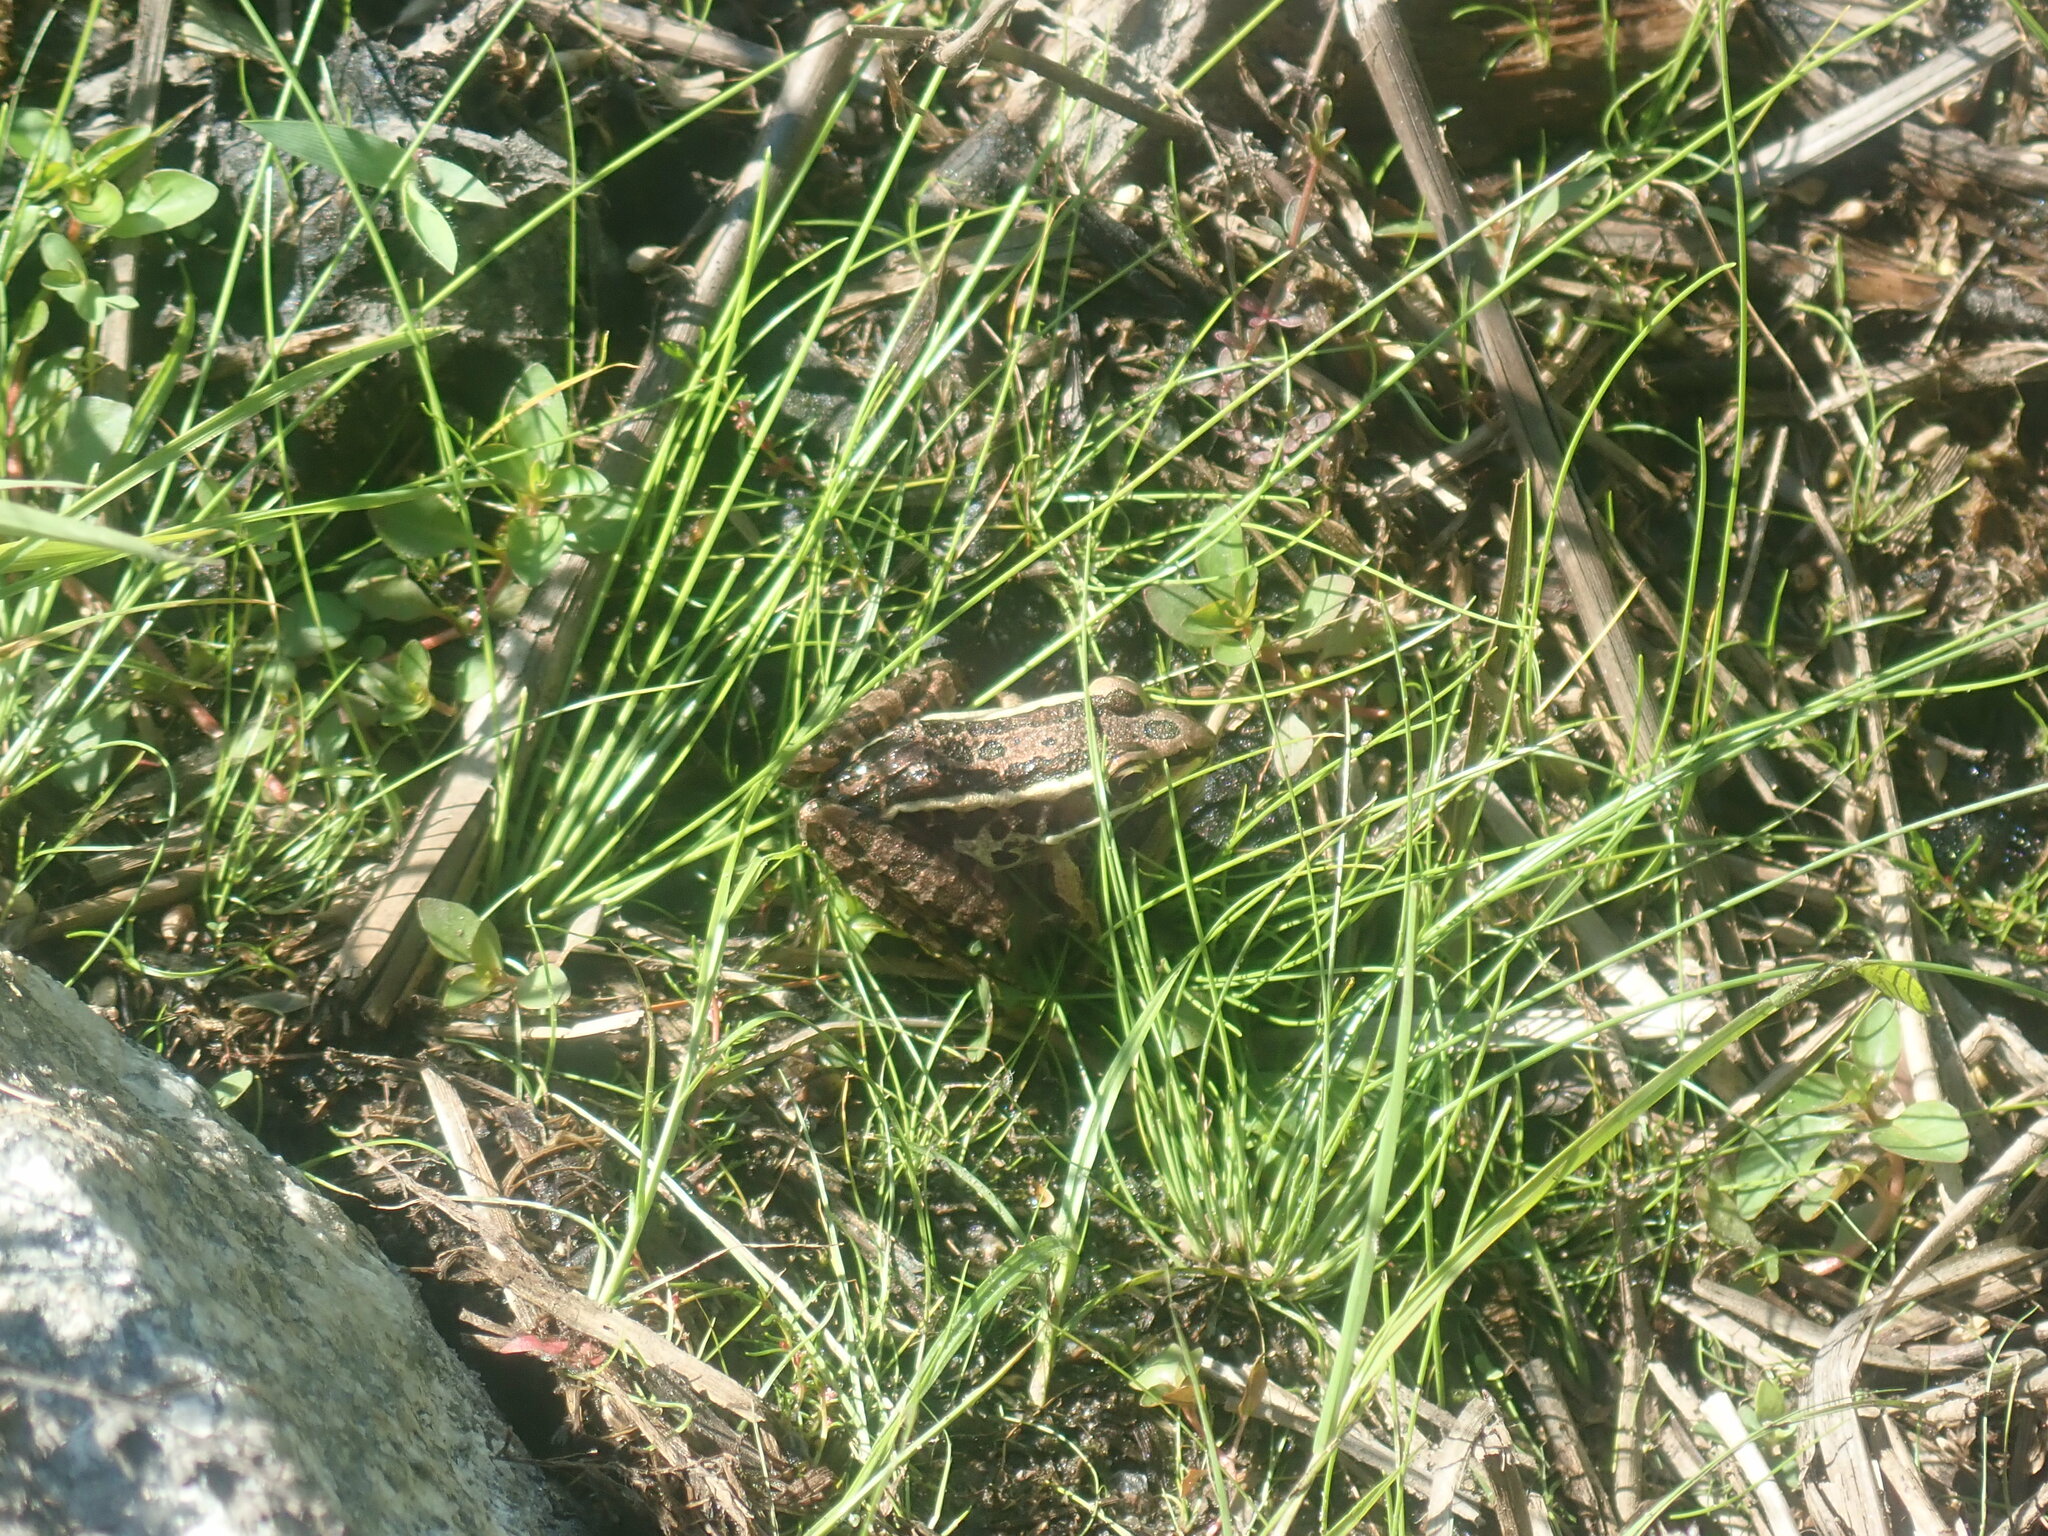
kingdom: Animalia
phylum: Chordata
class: Amphibia
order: Anura
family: Ranidae
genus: Lithobates
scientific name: Lithobates palustris
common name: Pickerel frog
